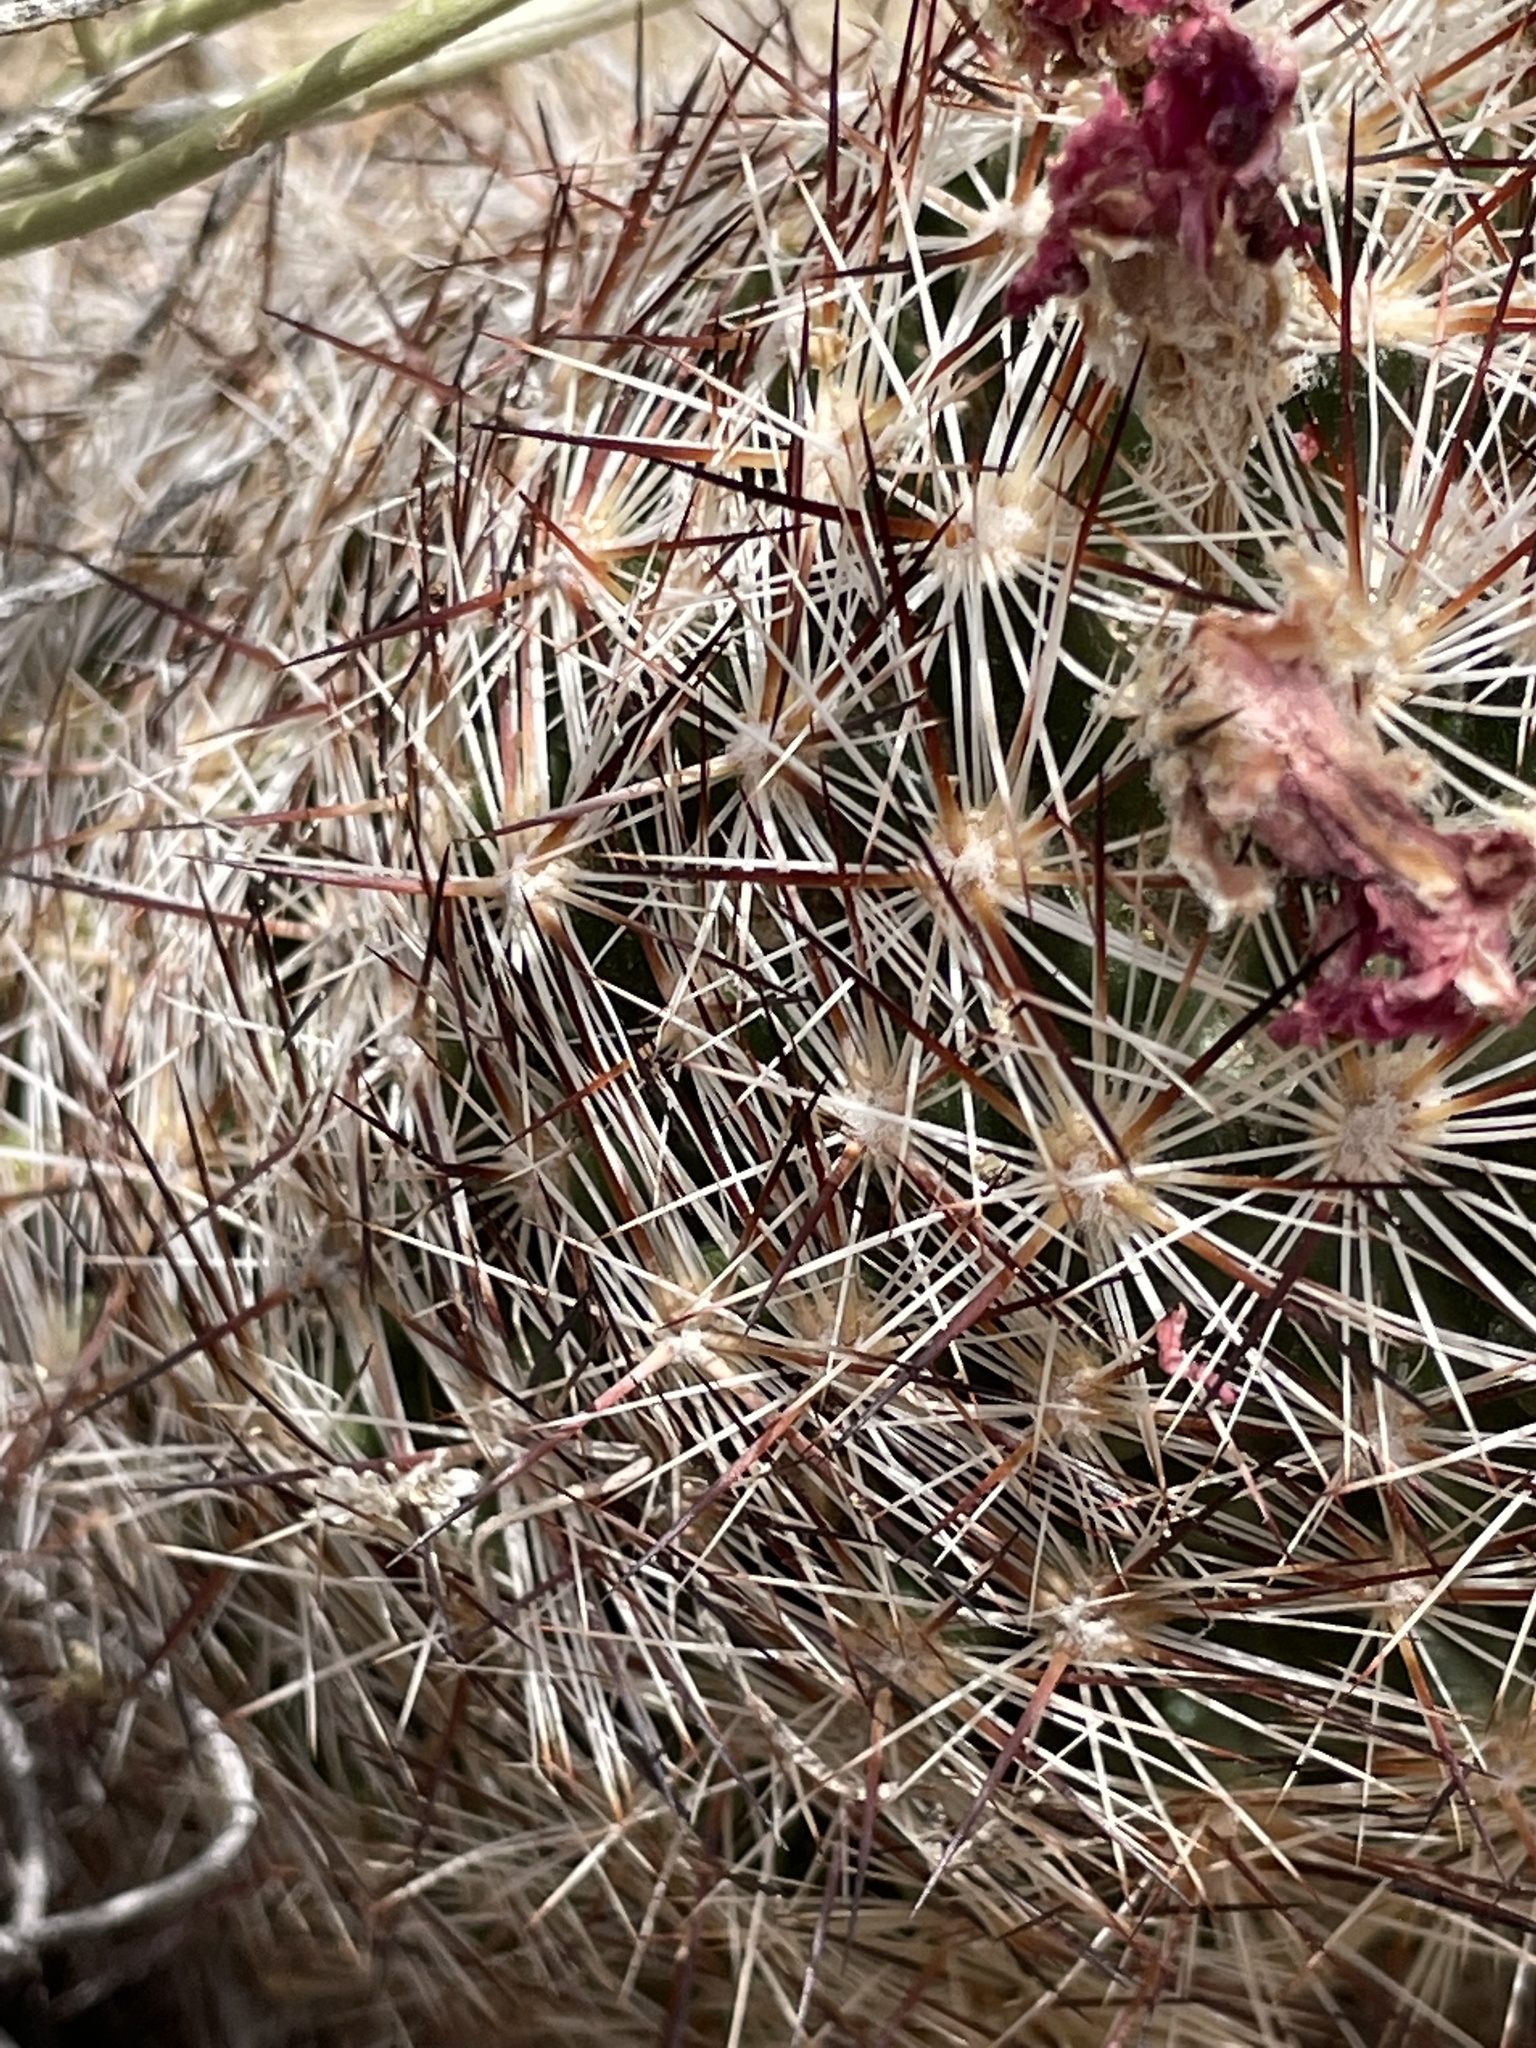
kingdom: Plantae
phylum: Tracheophyta
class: Magnoliopsida
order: Caryophyllales
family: Cactaceae
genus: Pelecyphora
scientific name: Pelecyphora vivipara
